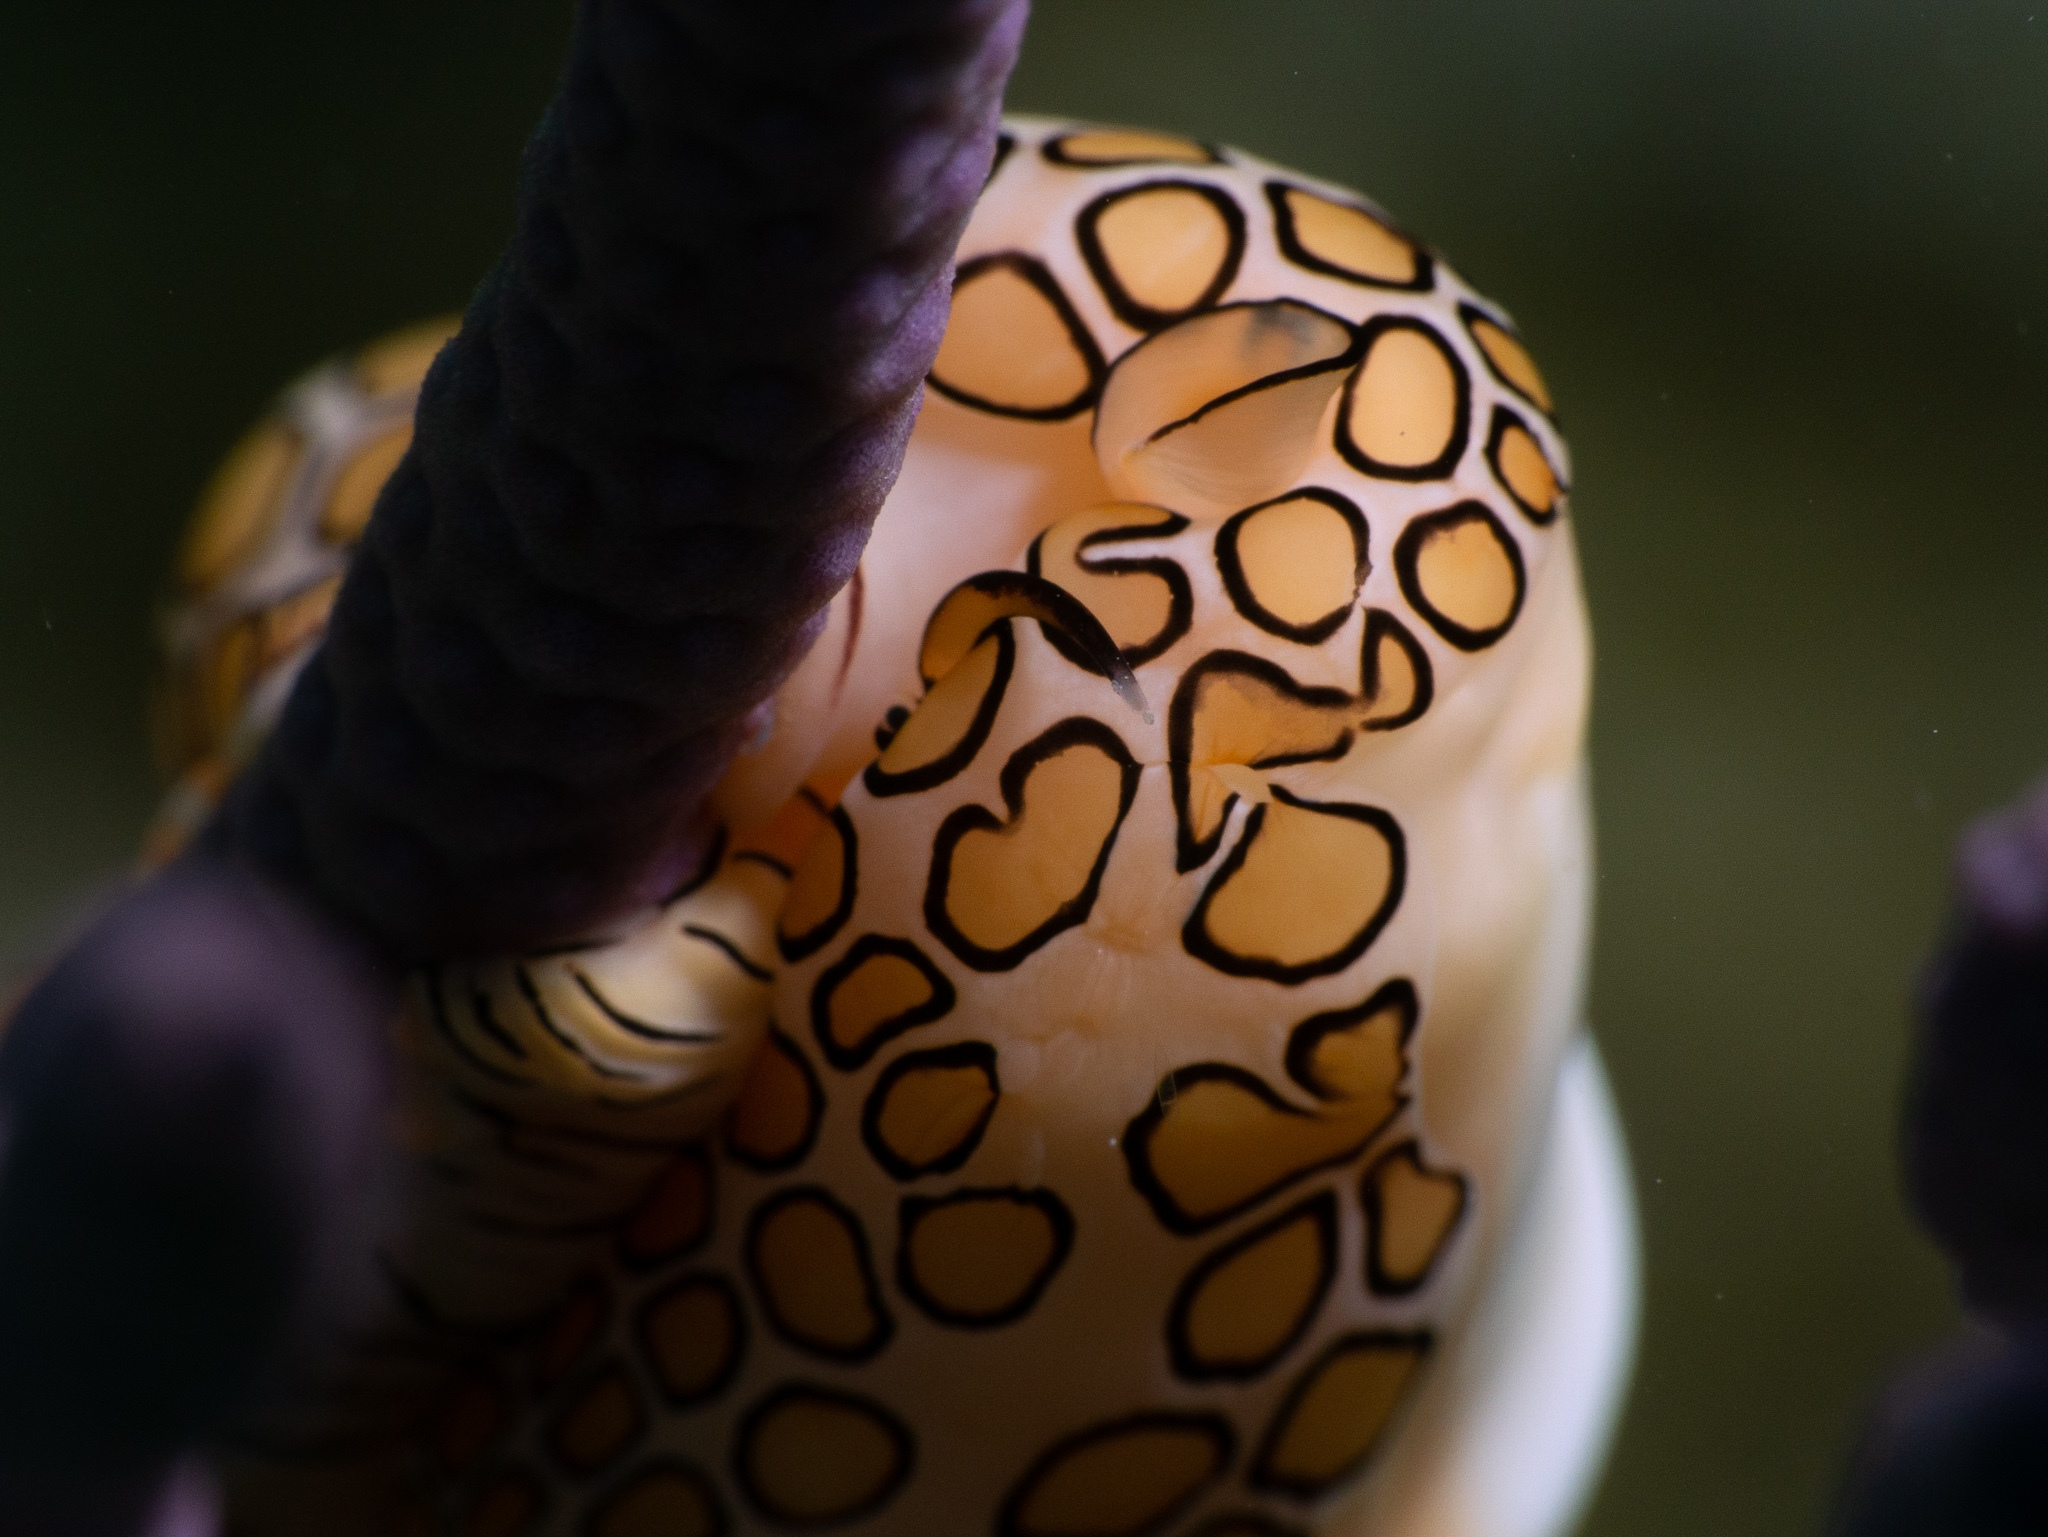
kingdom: Animalia
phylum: Mollusca
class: Gastropoda
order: Littorinimorpha
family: Ovulidae
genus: Cyphoma
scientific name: Cyphoma gibbosum
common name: Flamingo tongue
